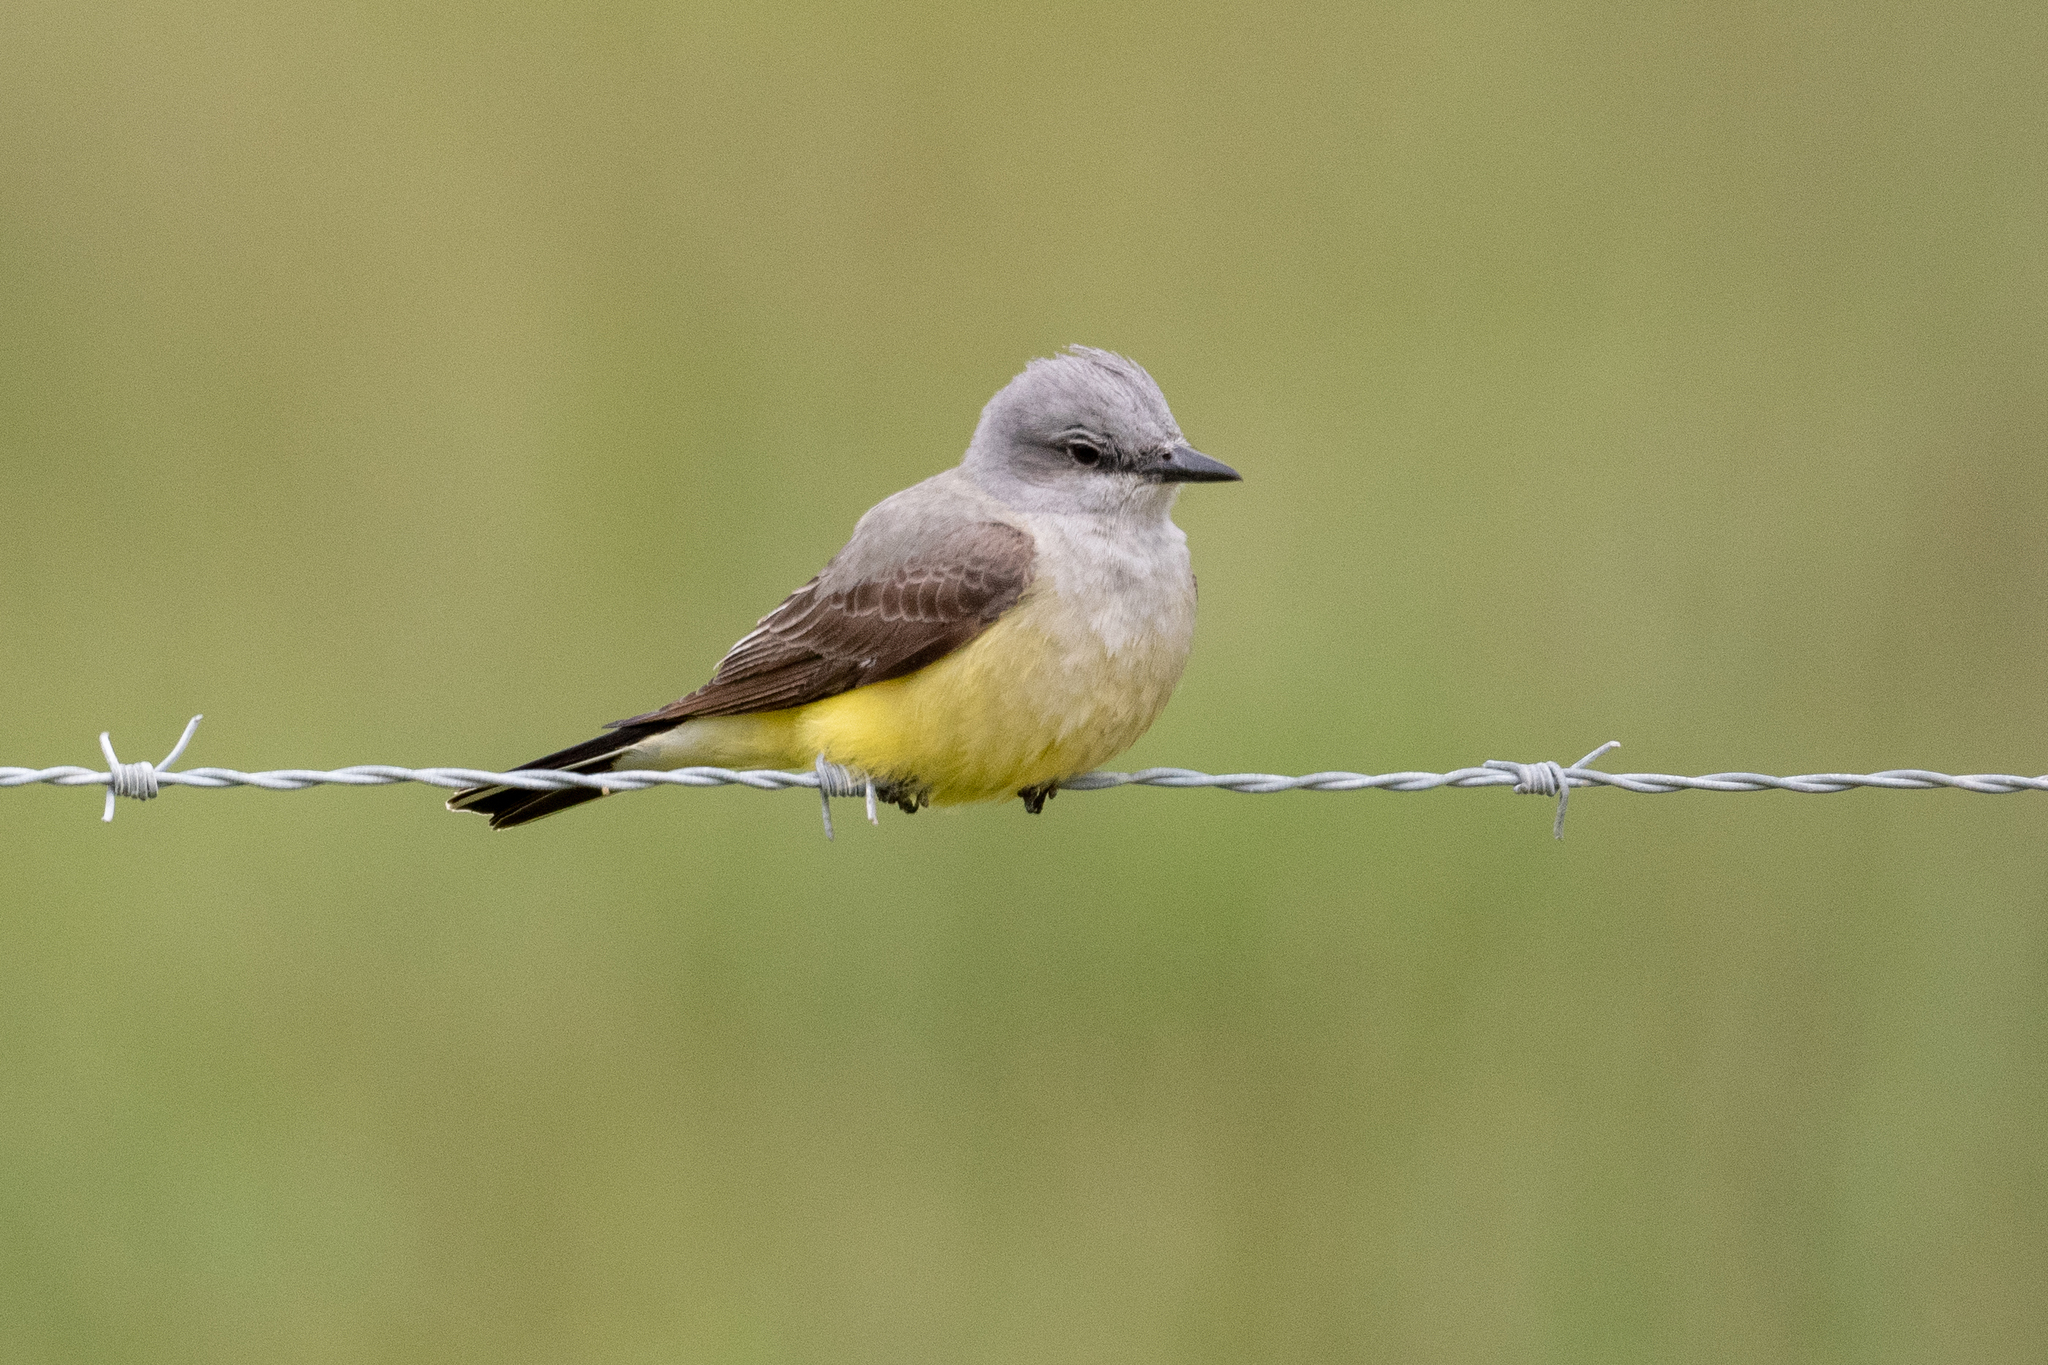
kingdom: Animalia
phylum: Chordata
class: Aves
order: Passeriformes
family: Tyrannidae
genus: Tyrannus
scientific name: Tyrannus verticalis
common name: Western kingbird
